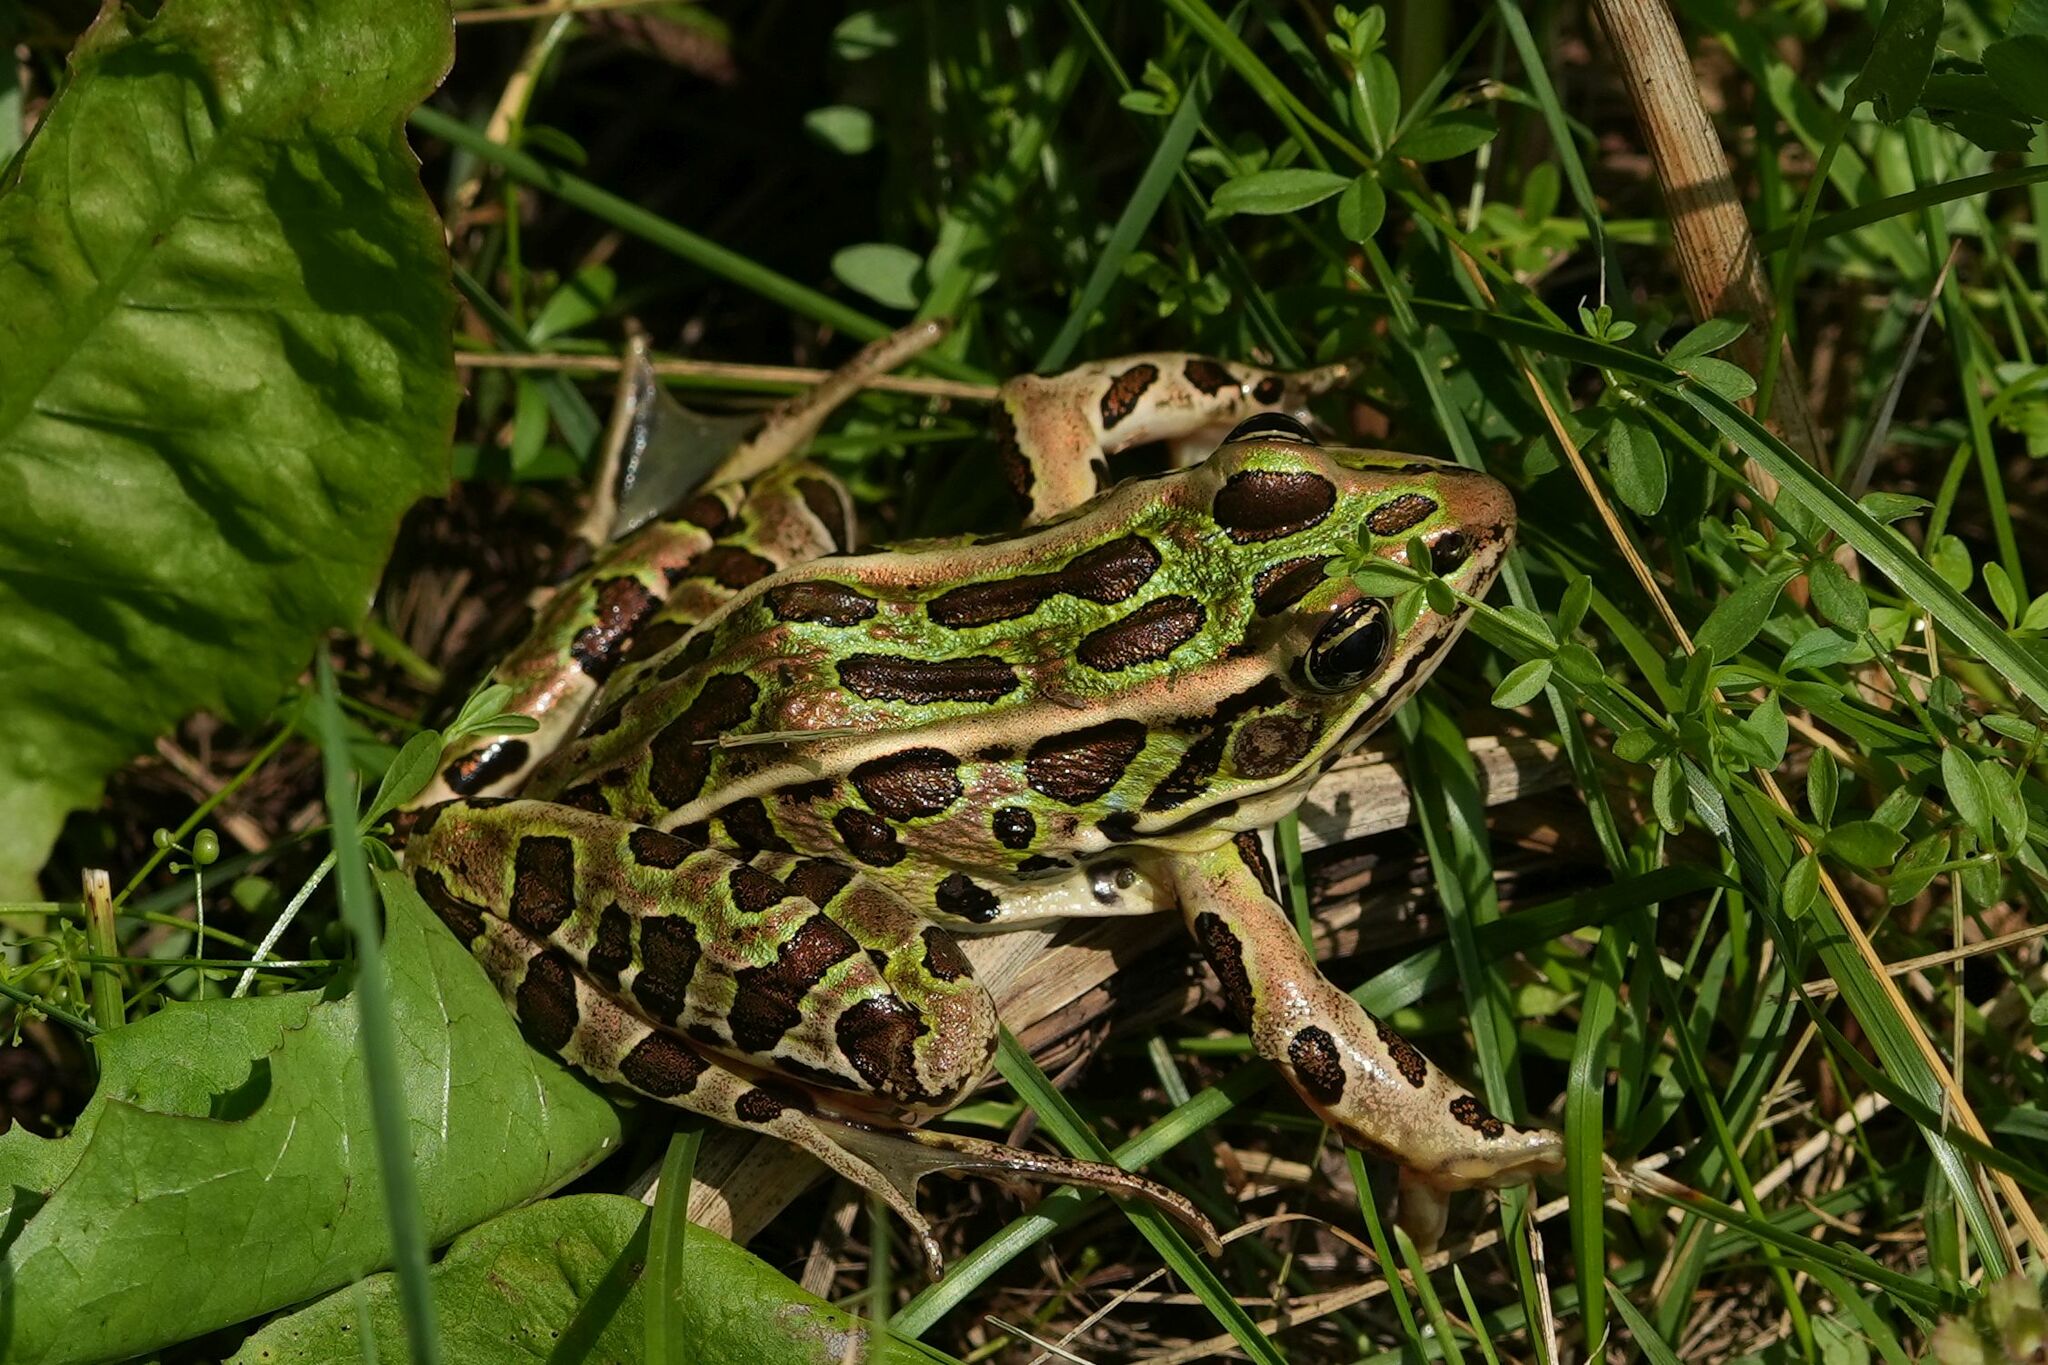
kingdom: Animalia
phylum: Chordata
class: Amphibia
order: Anura
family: Ranidae
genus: Lithobates
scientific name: Lithobates pipiens
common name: Northern leopard frog
